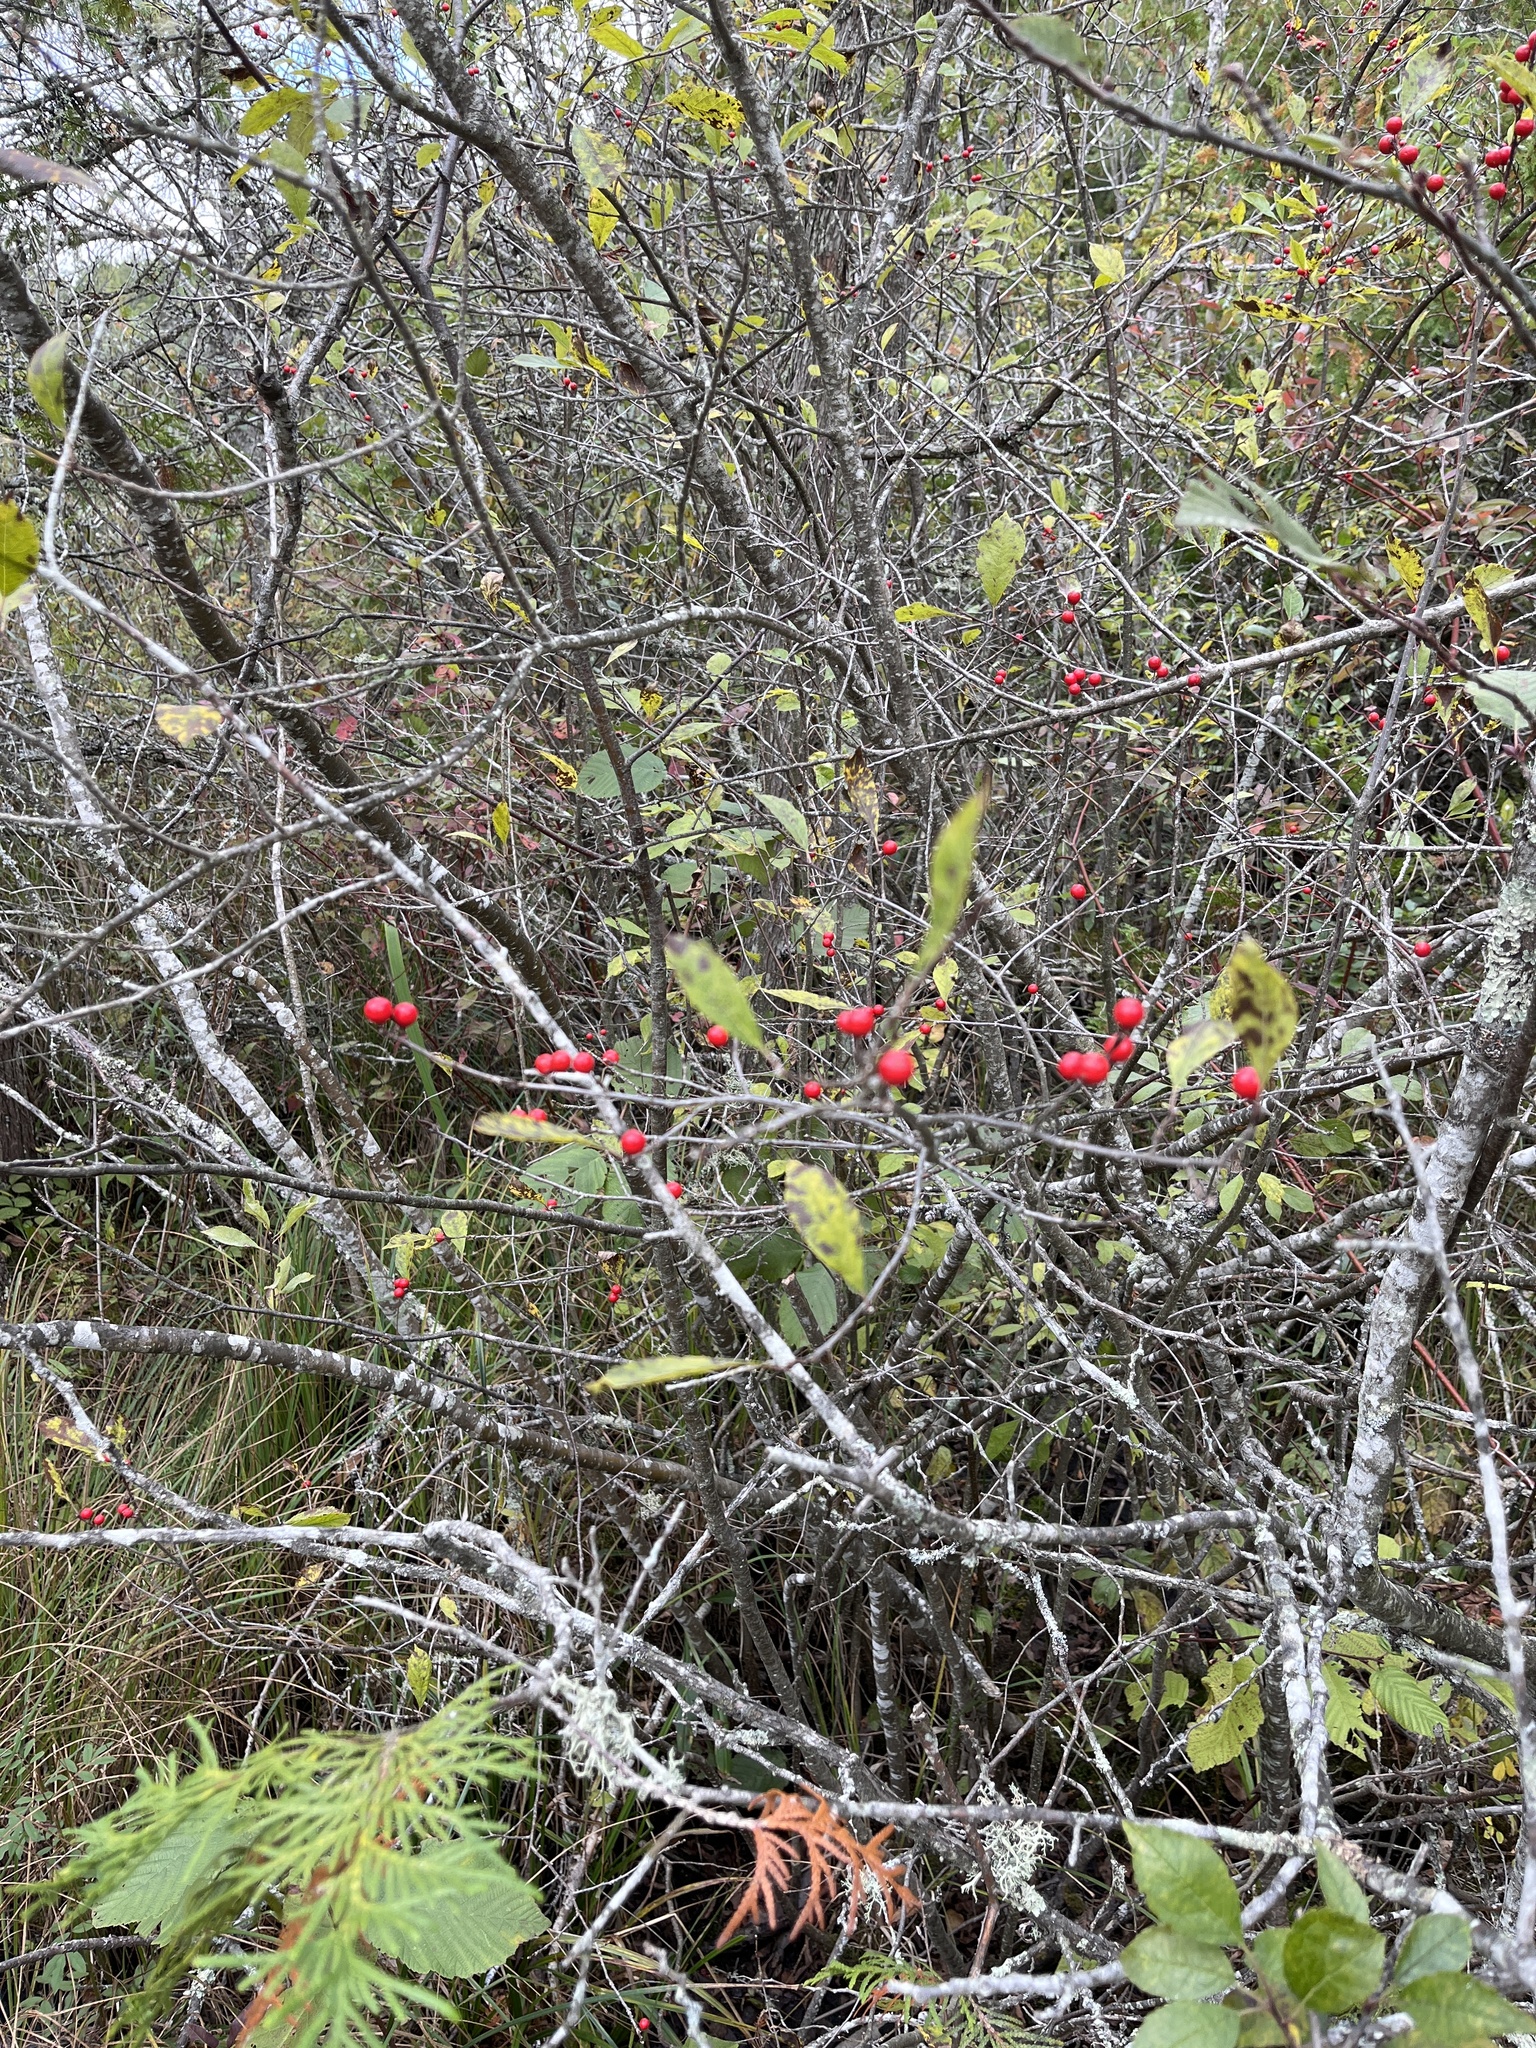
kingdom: Plantae
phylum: Tracheophyta
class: Magnoliopsida
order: Aquifoliales
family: Aquifoliaceae
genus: Ilex
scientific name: Ilex verticillata
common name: Virginia winterberry
